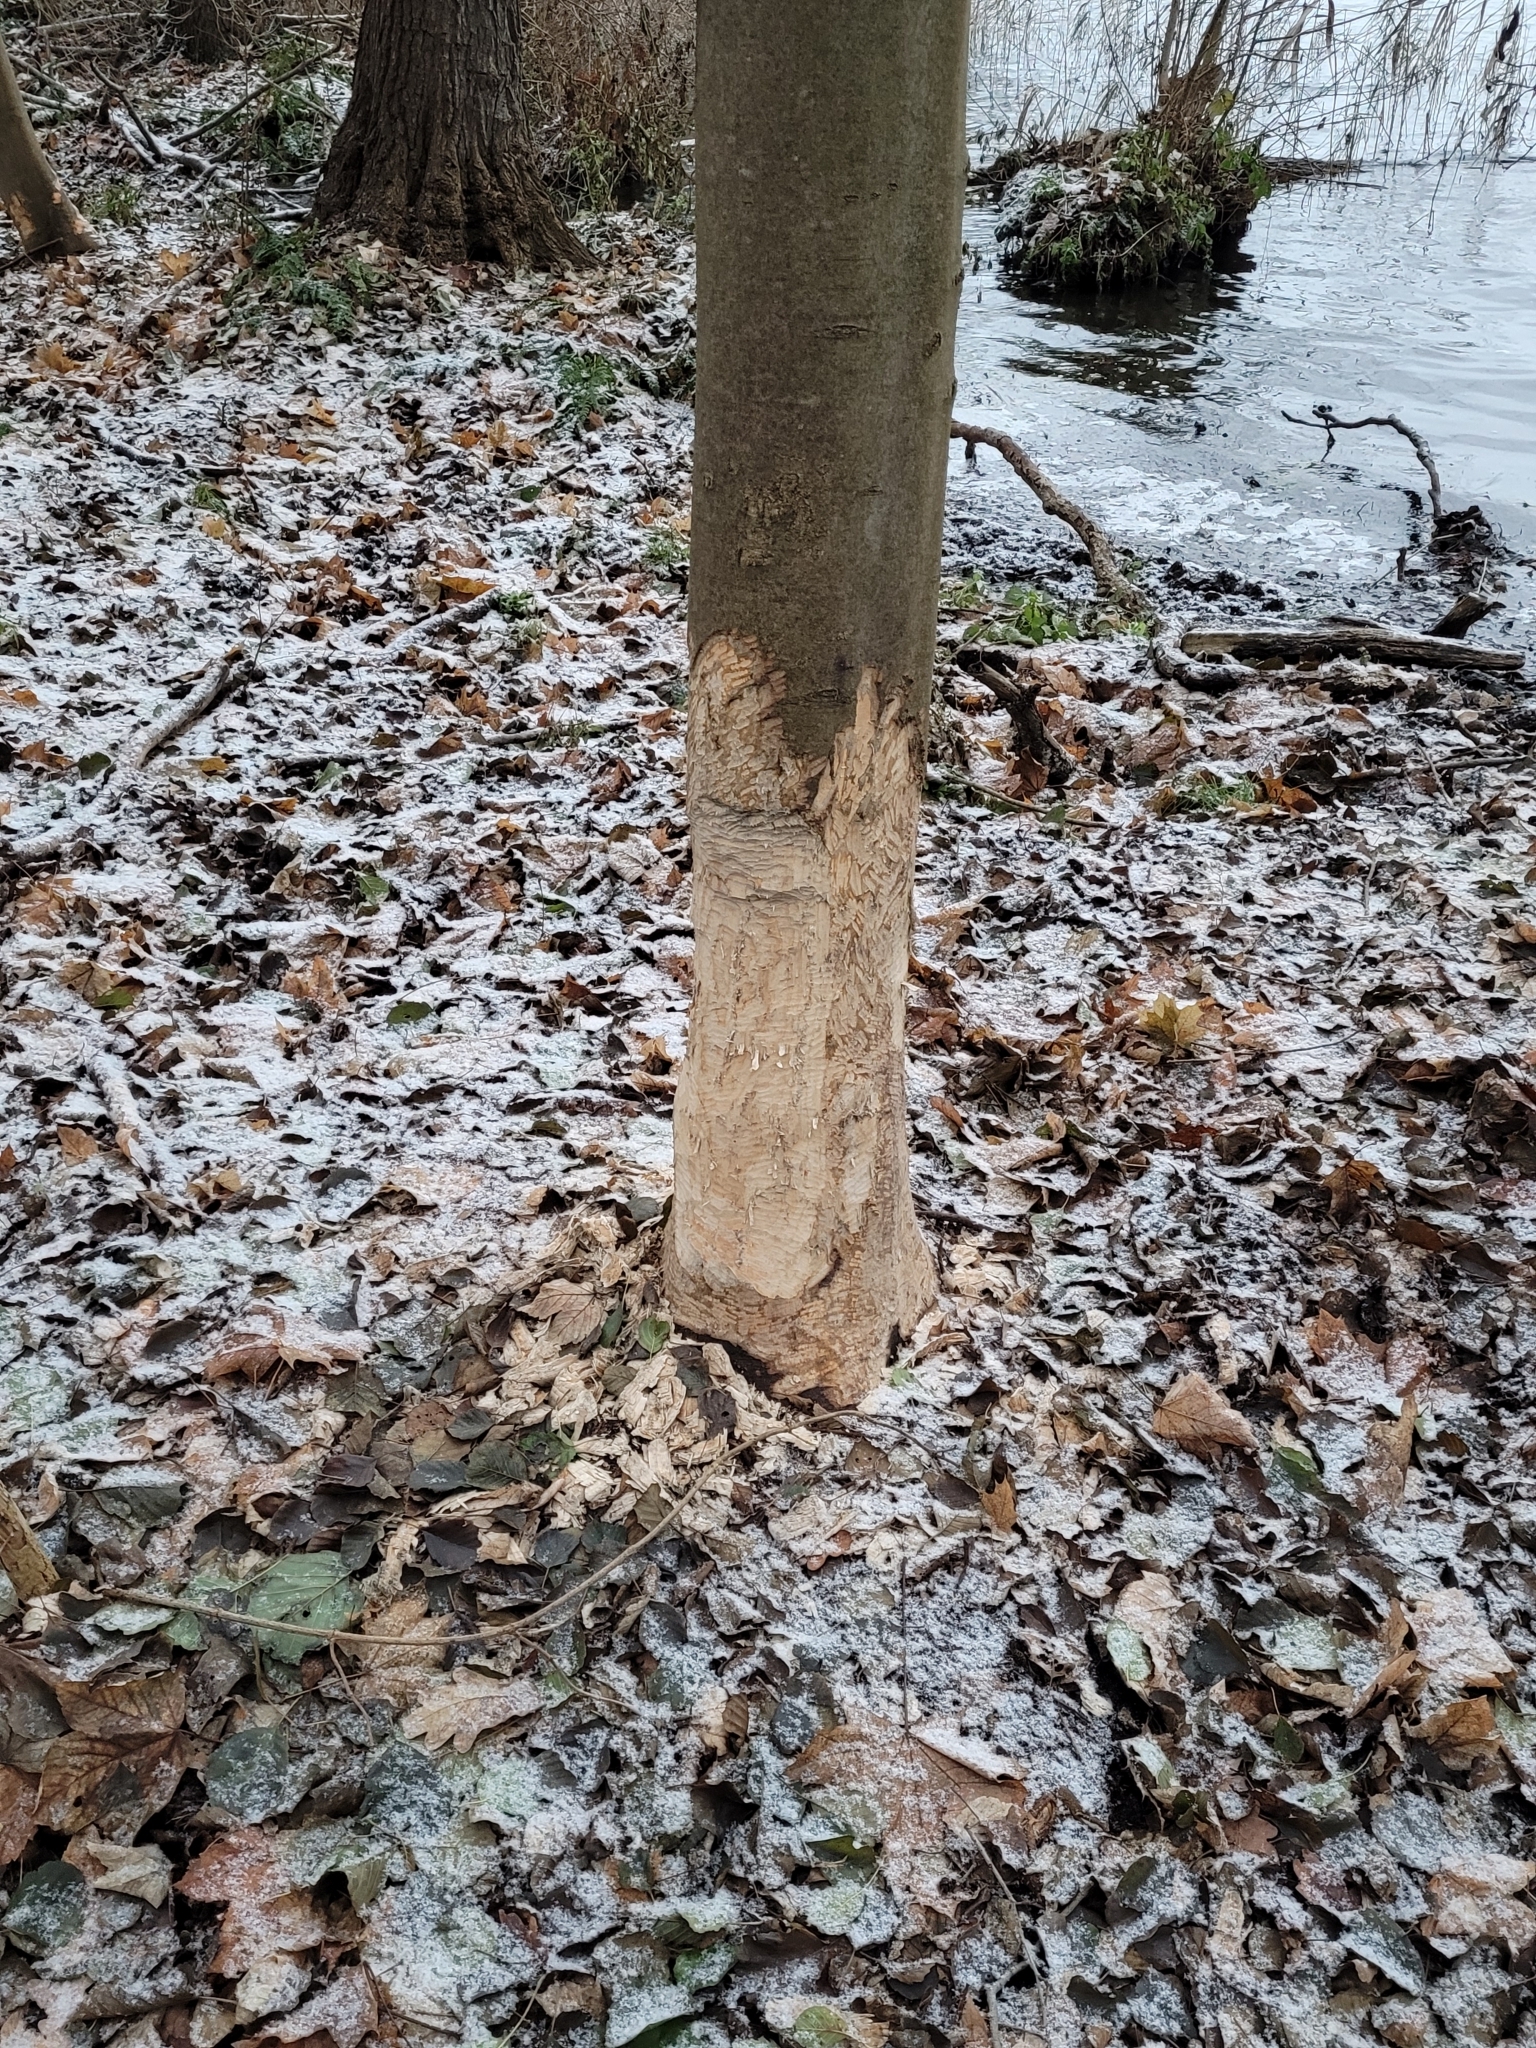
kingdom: Animalia
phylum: Chordata
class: Mammalia
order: Rodentia
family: Castoridae
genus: Castor
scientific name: Castor fiber
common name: Eurasian beaver
